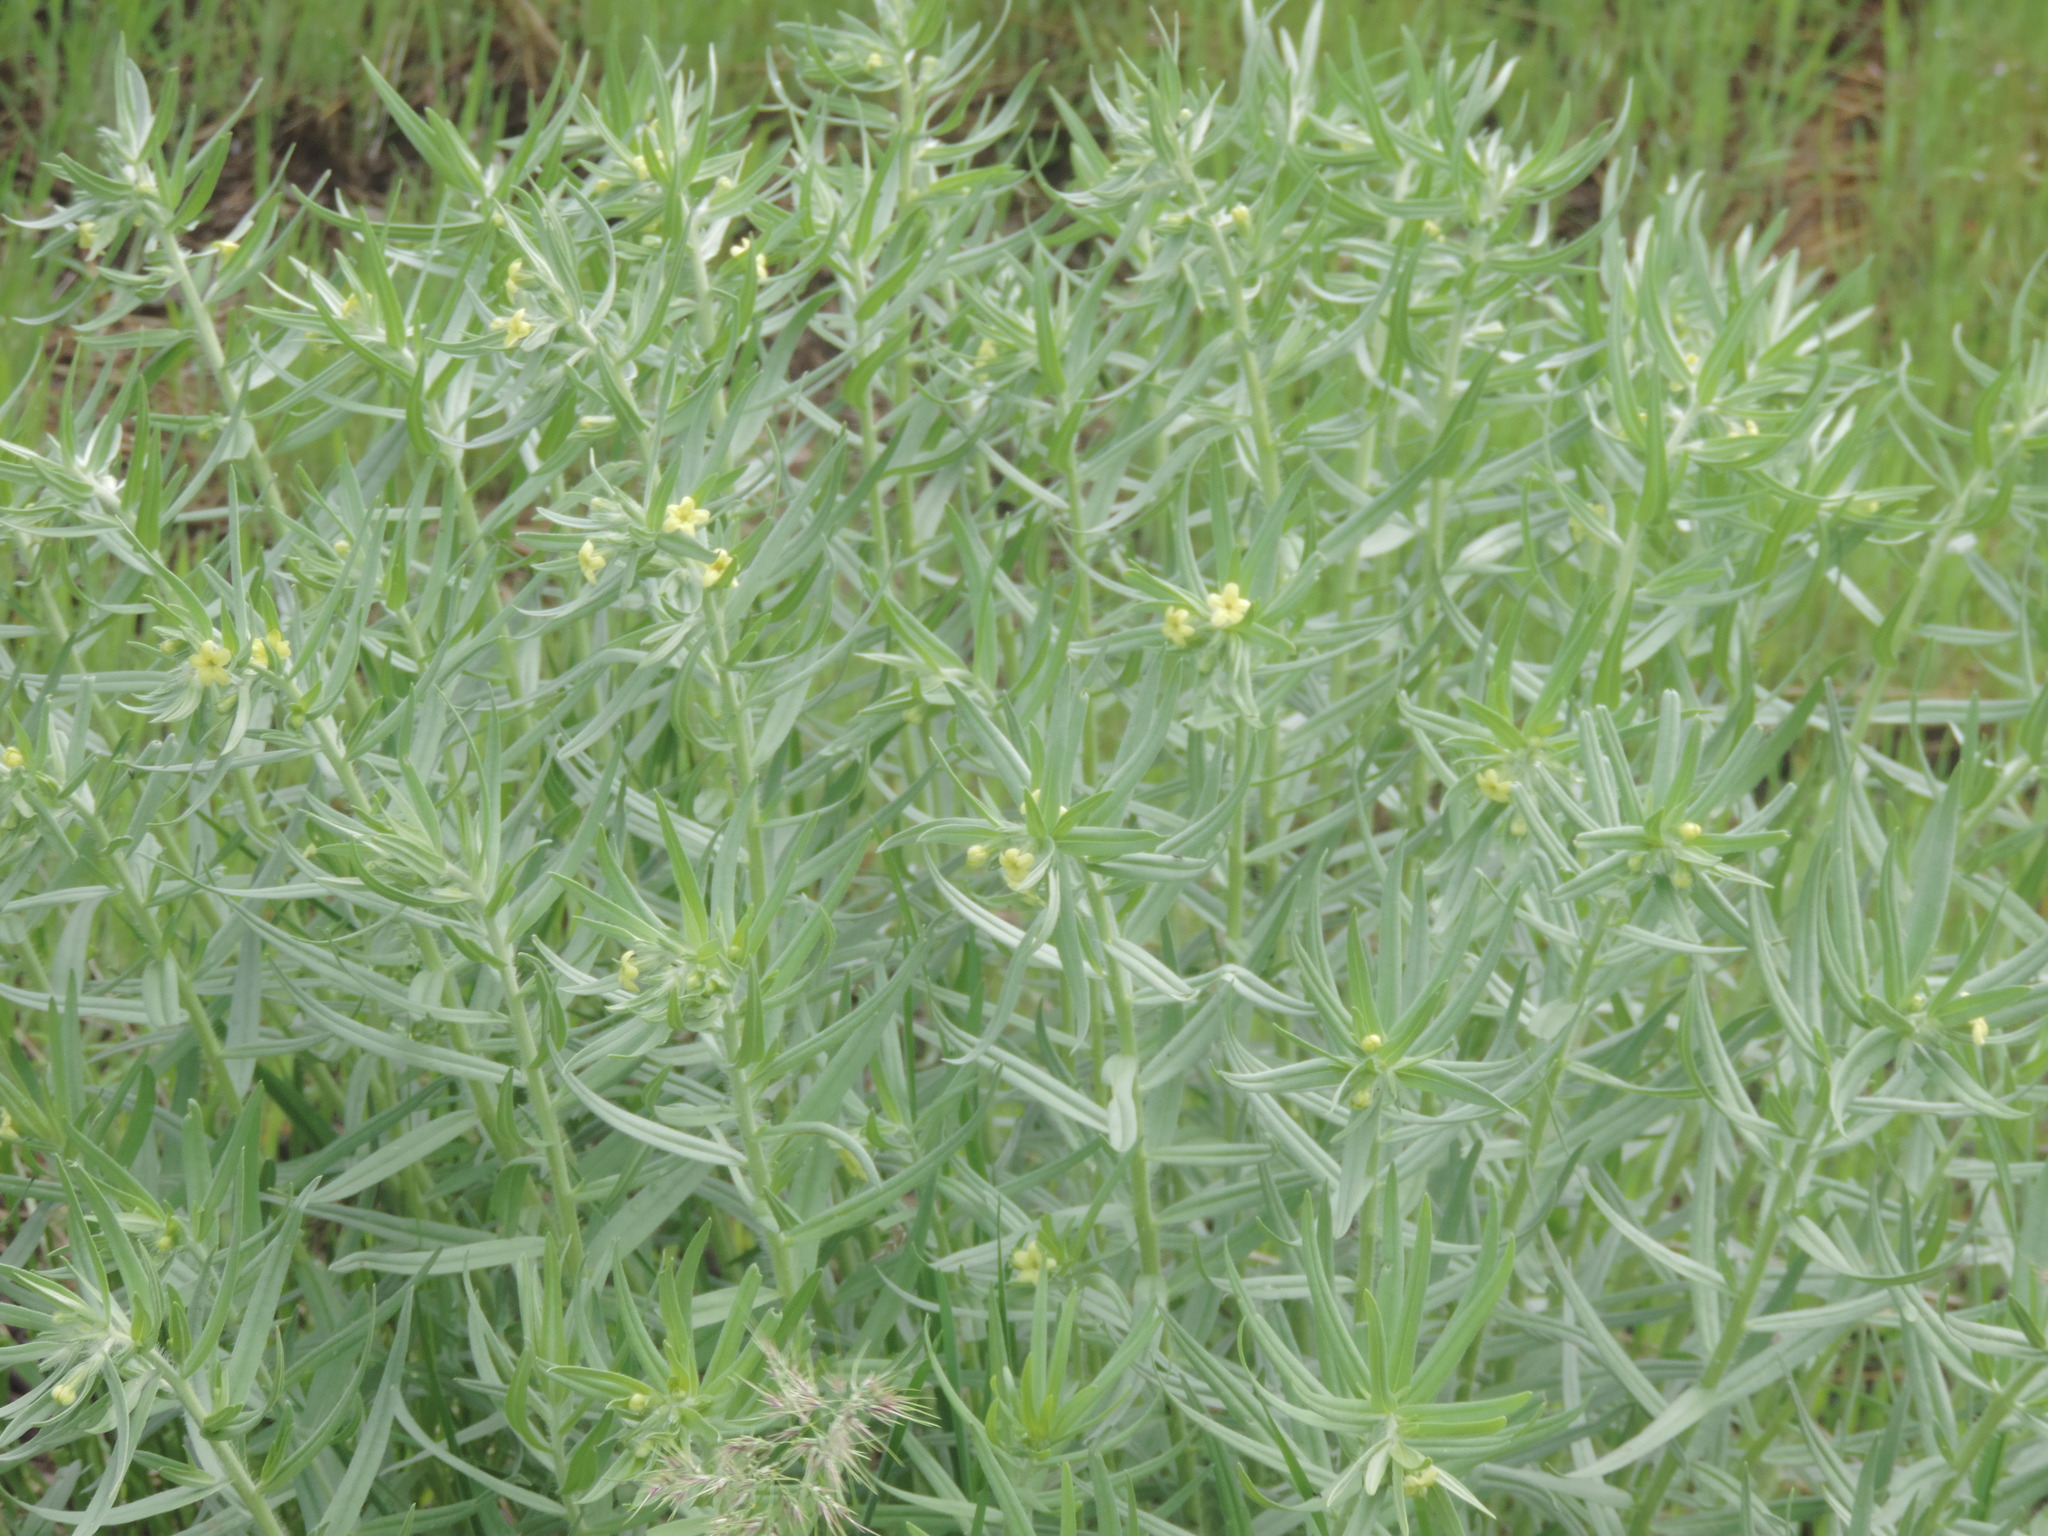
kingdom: Plantae
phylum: Tracheophyta
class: Magnoliopsida
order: Boraginales
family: Boraginaceae
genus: Lithospermum
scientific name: Lithospermum ruderale
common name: Western gromwell
